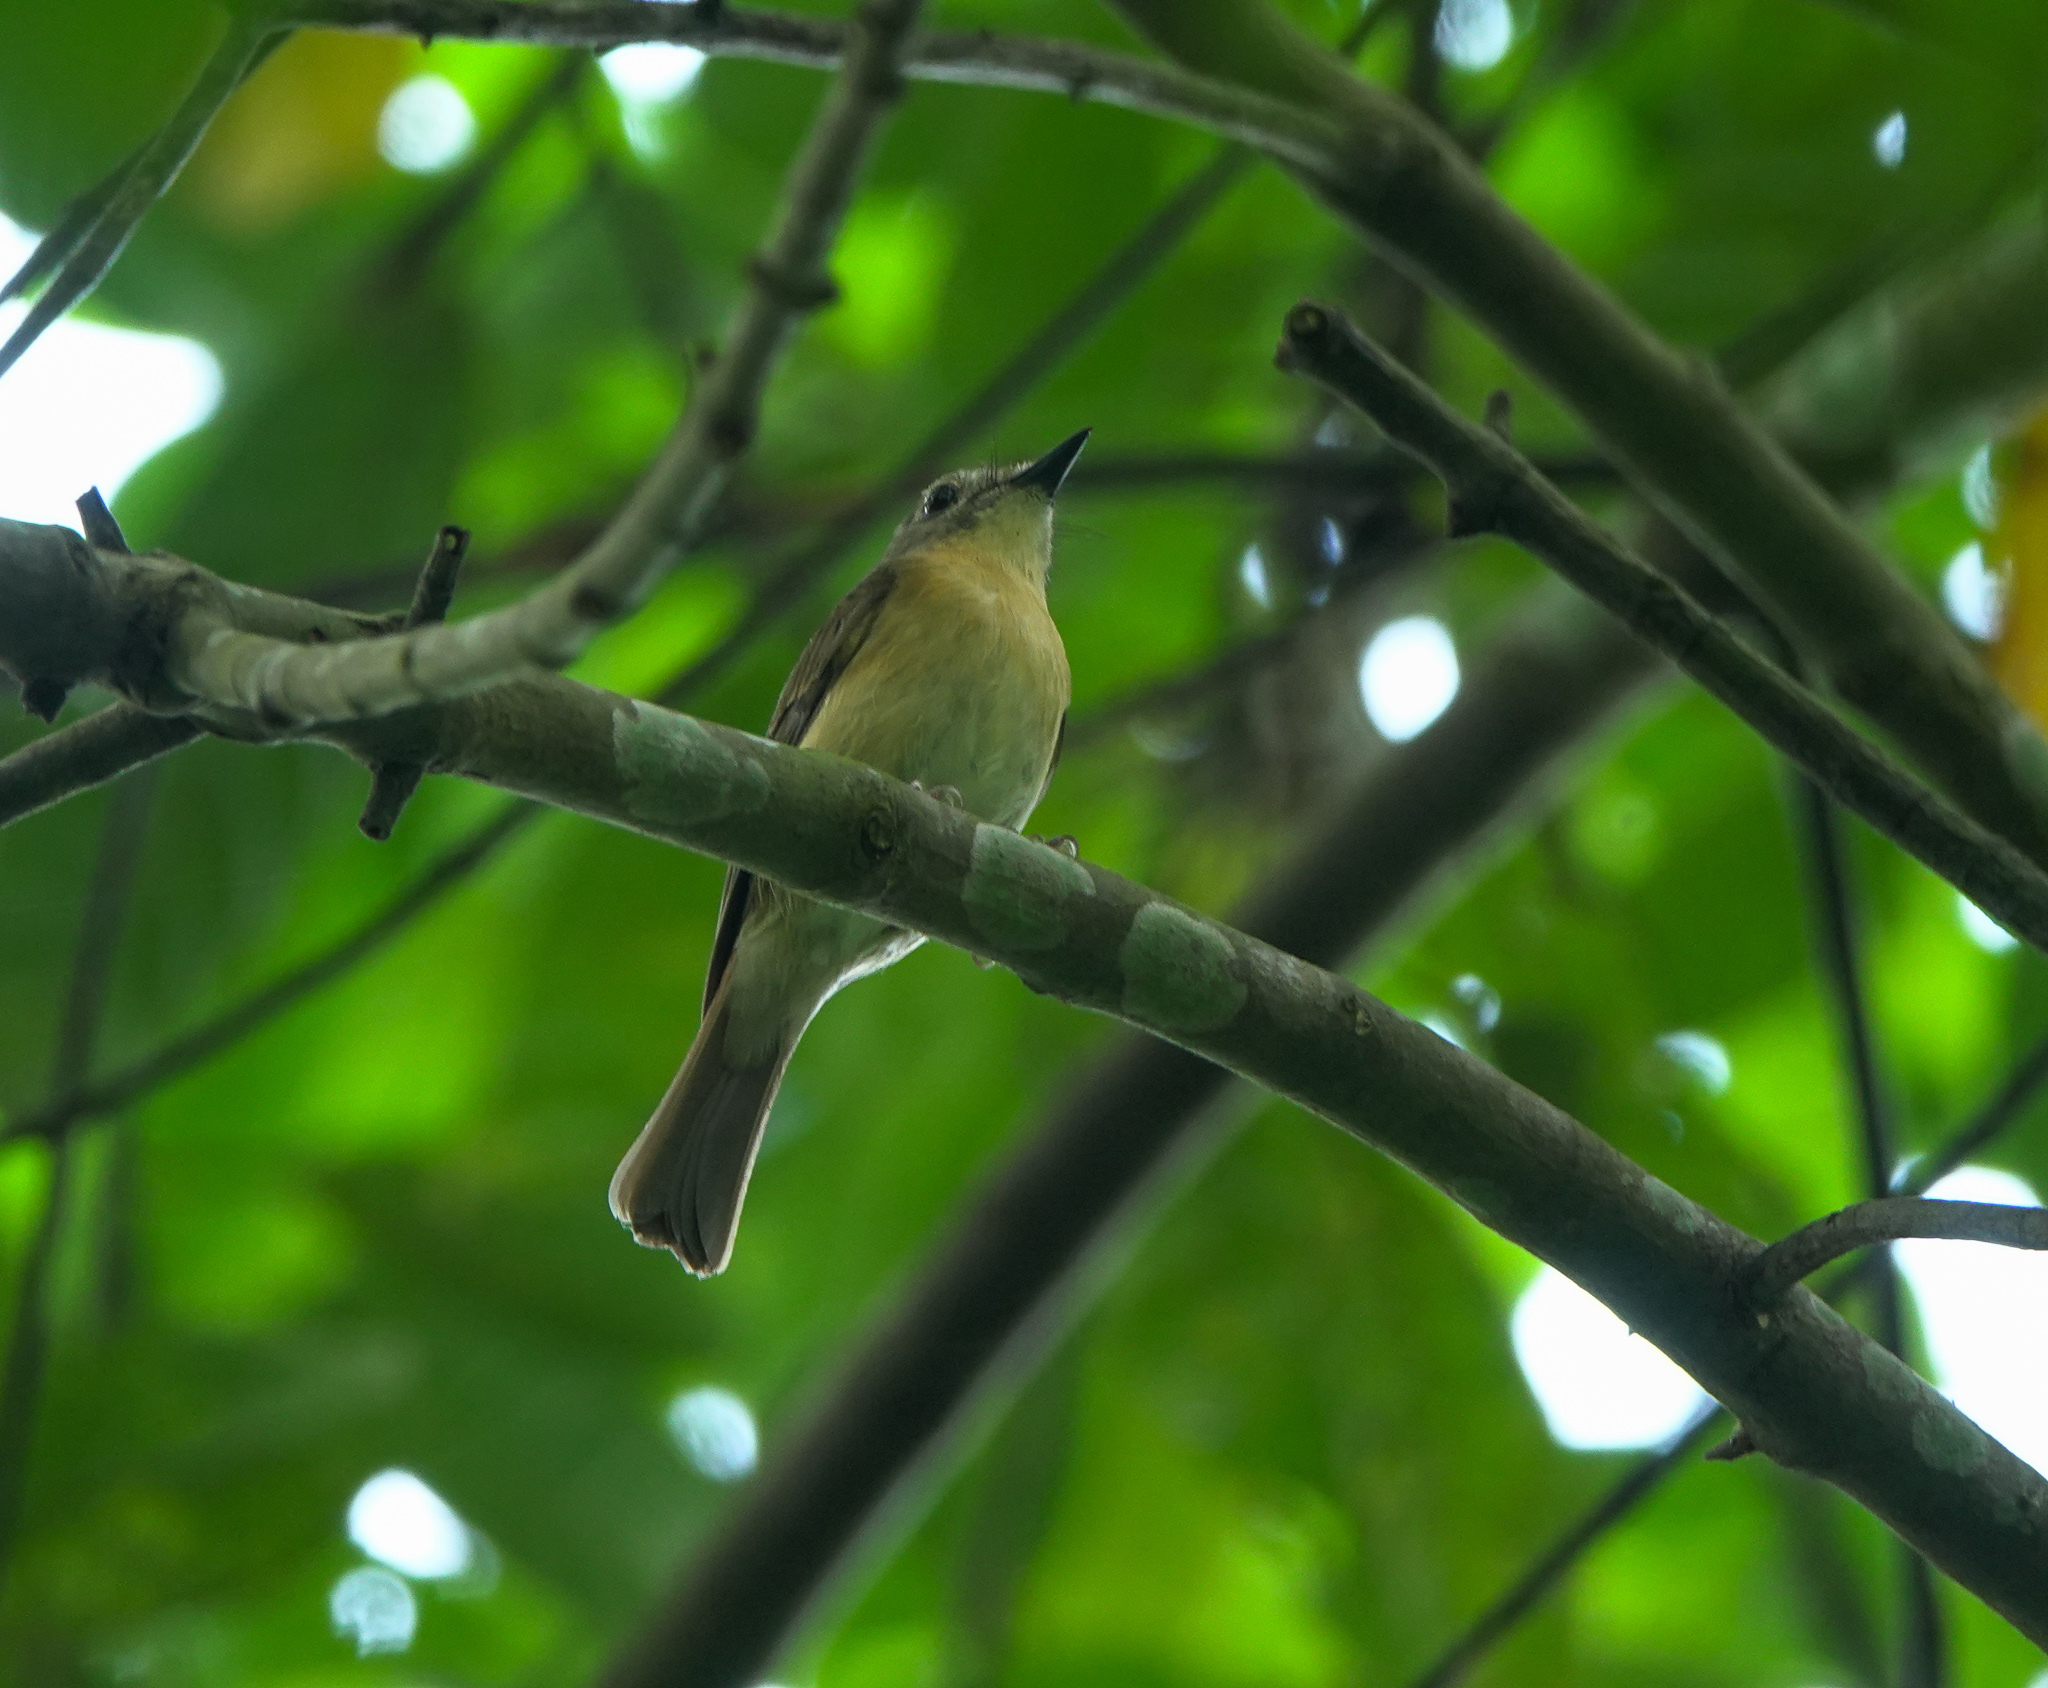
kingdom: Animalia
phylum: Chordata
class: Aves
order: Passeriformes
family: Muscicapidae
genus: Cyornis
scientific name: Cyornis poliogenys
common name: Pale-chinned blue flycatcher
